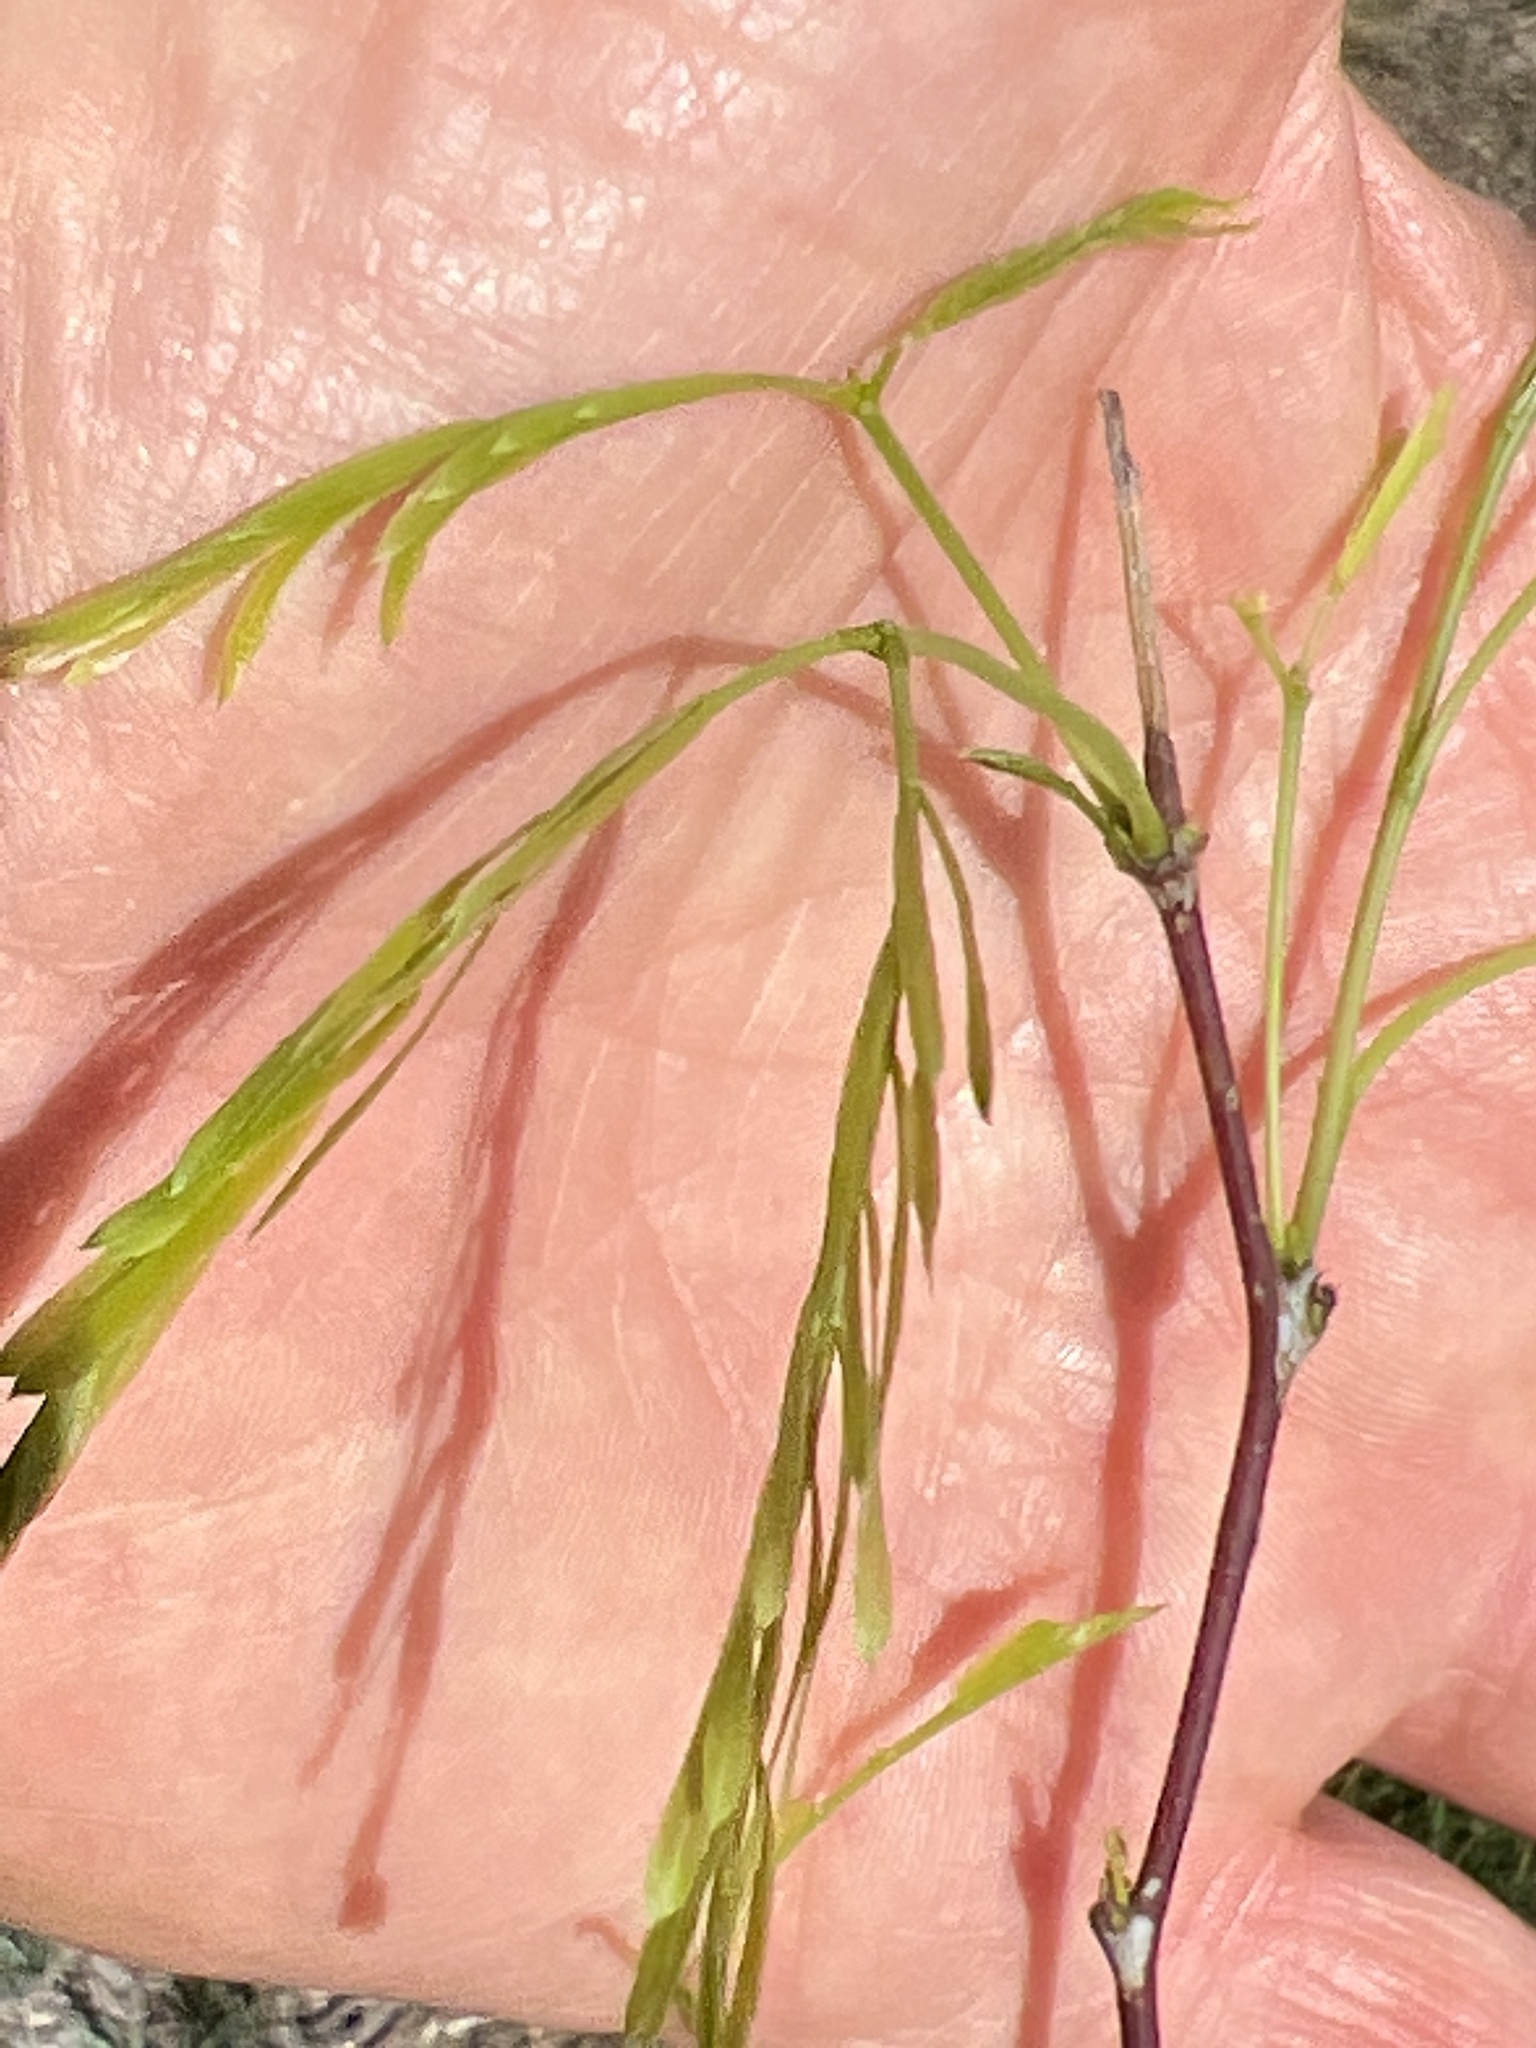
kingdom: Plantae
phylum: Tracheophyta
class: Magnoliopsida
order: Fabales
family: Fabaceae
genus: Prosopis
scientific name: Prosopis glandulosa
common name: Honey mesquite
